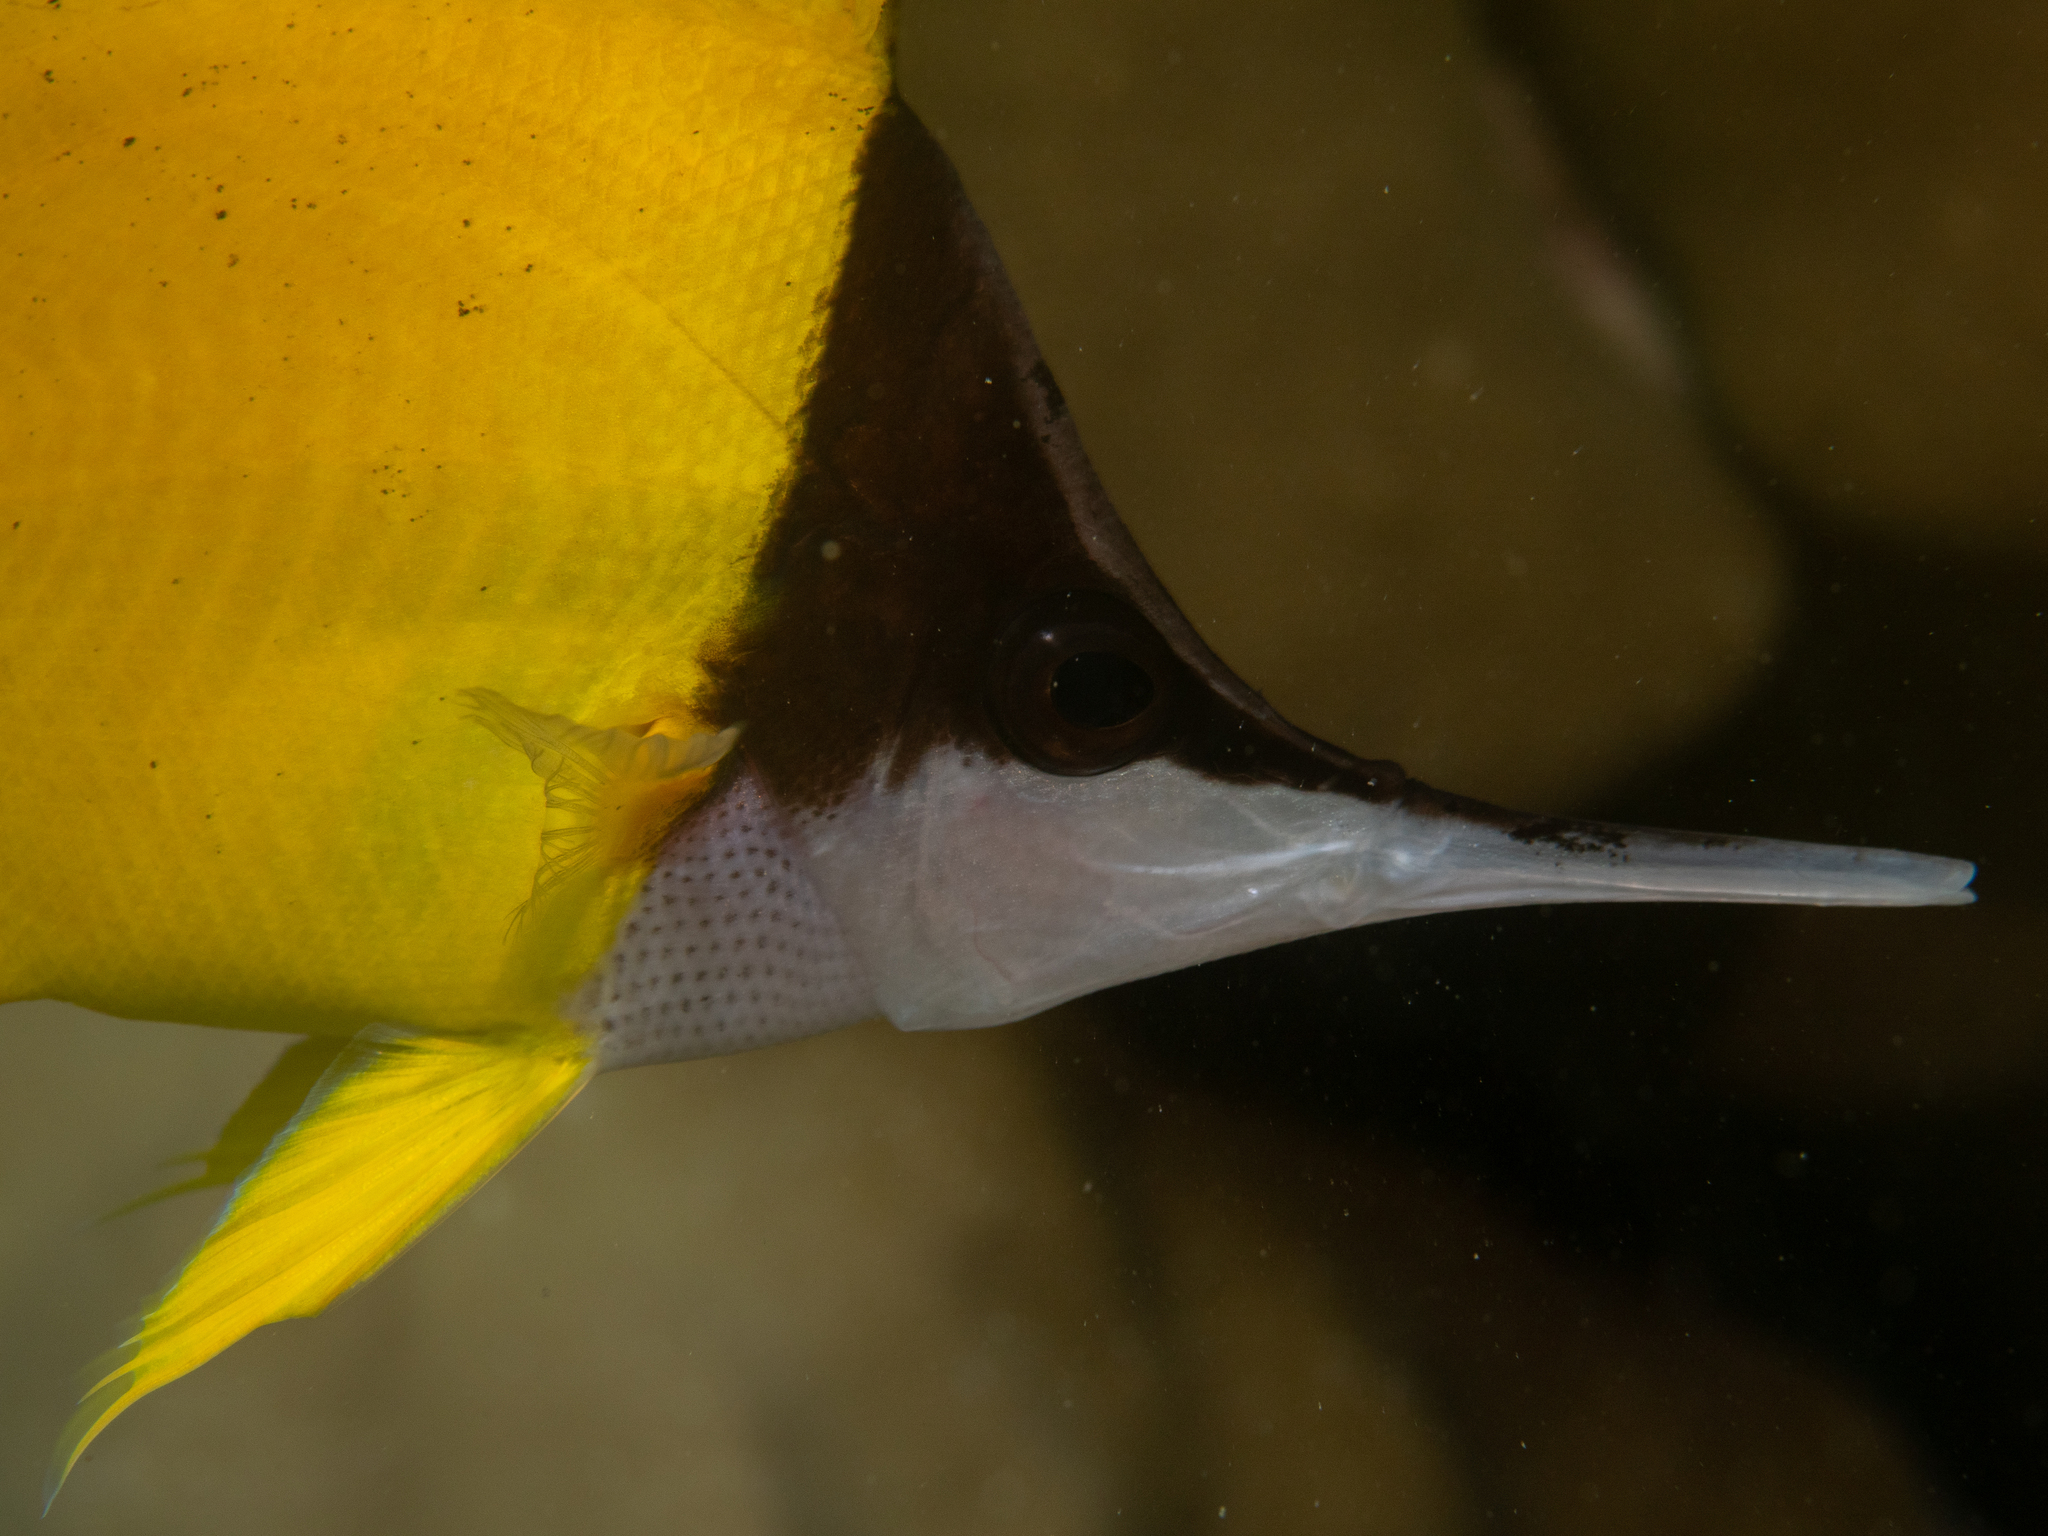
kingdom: Animalia
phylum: Chordata
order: Perciformes
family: Chaetodontidae
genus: Forcipiger
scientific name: Forcipiger longirostris
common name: Longnose butterflyfish
